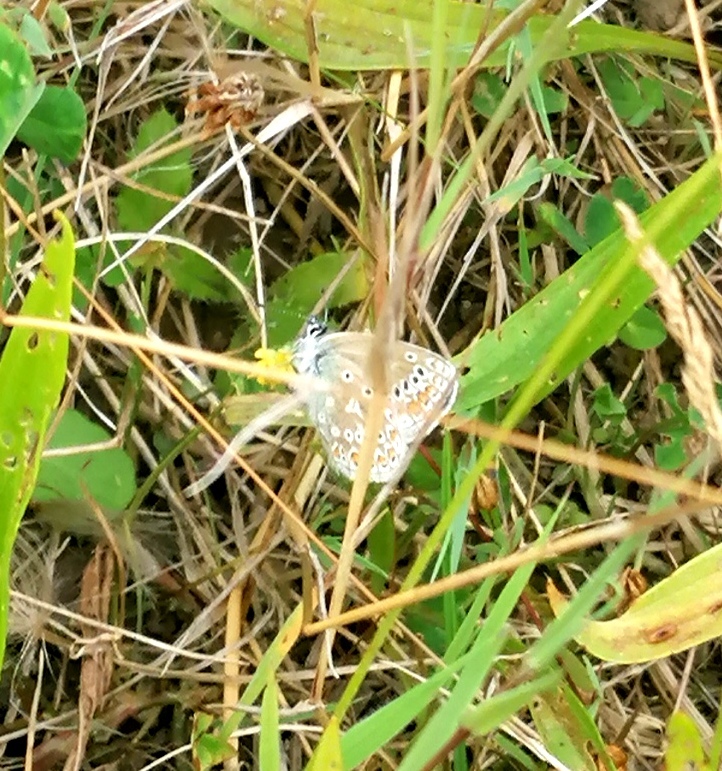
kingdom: Animalia
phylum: Arthropoda
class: Insecta
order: Lepidoptera
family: Lycaenidae
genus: Polyommatus
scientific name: Polyommatus icarus
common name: Common blue
